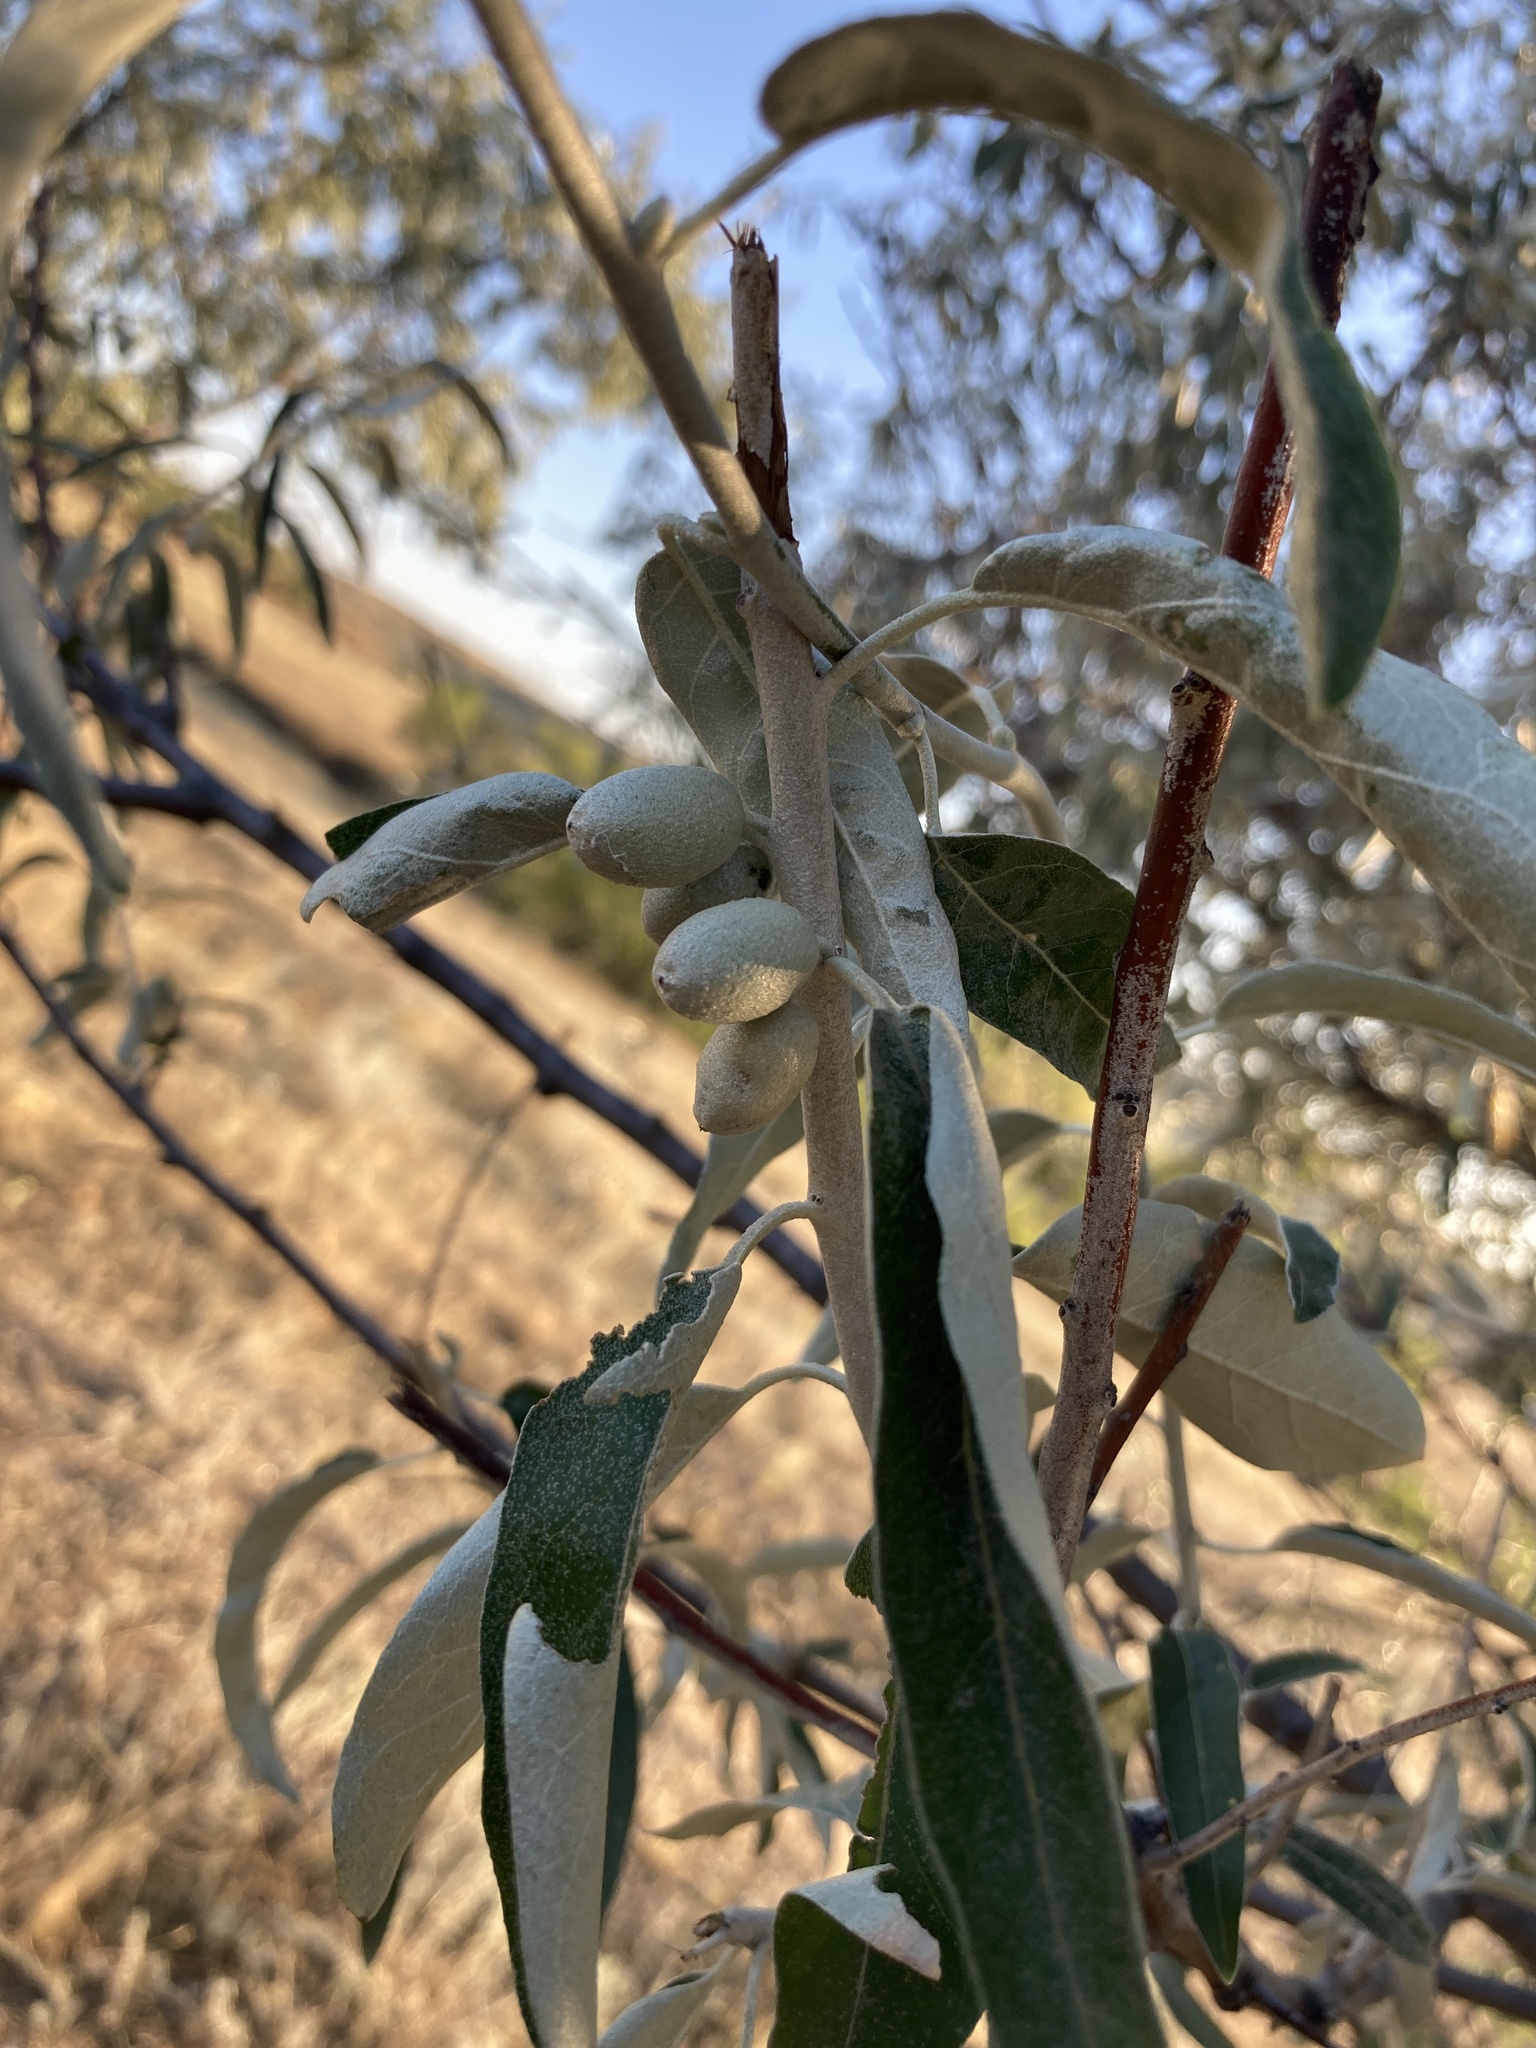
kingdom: Plantae
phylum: Tracheophyta
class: Magnoliopsida
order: Rosales
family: Elaeagnaceae
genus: Elaeagnus
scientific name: Elaeagnus angustifolia
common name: Russian olive
